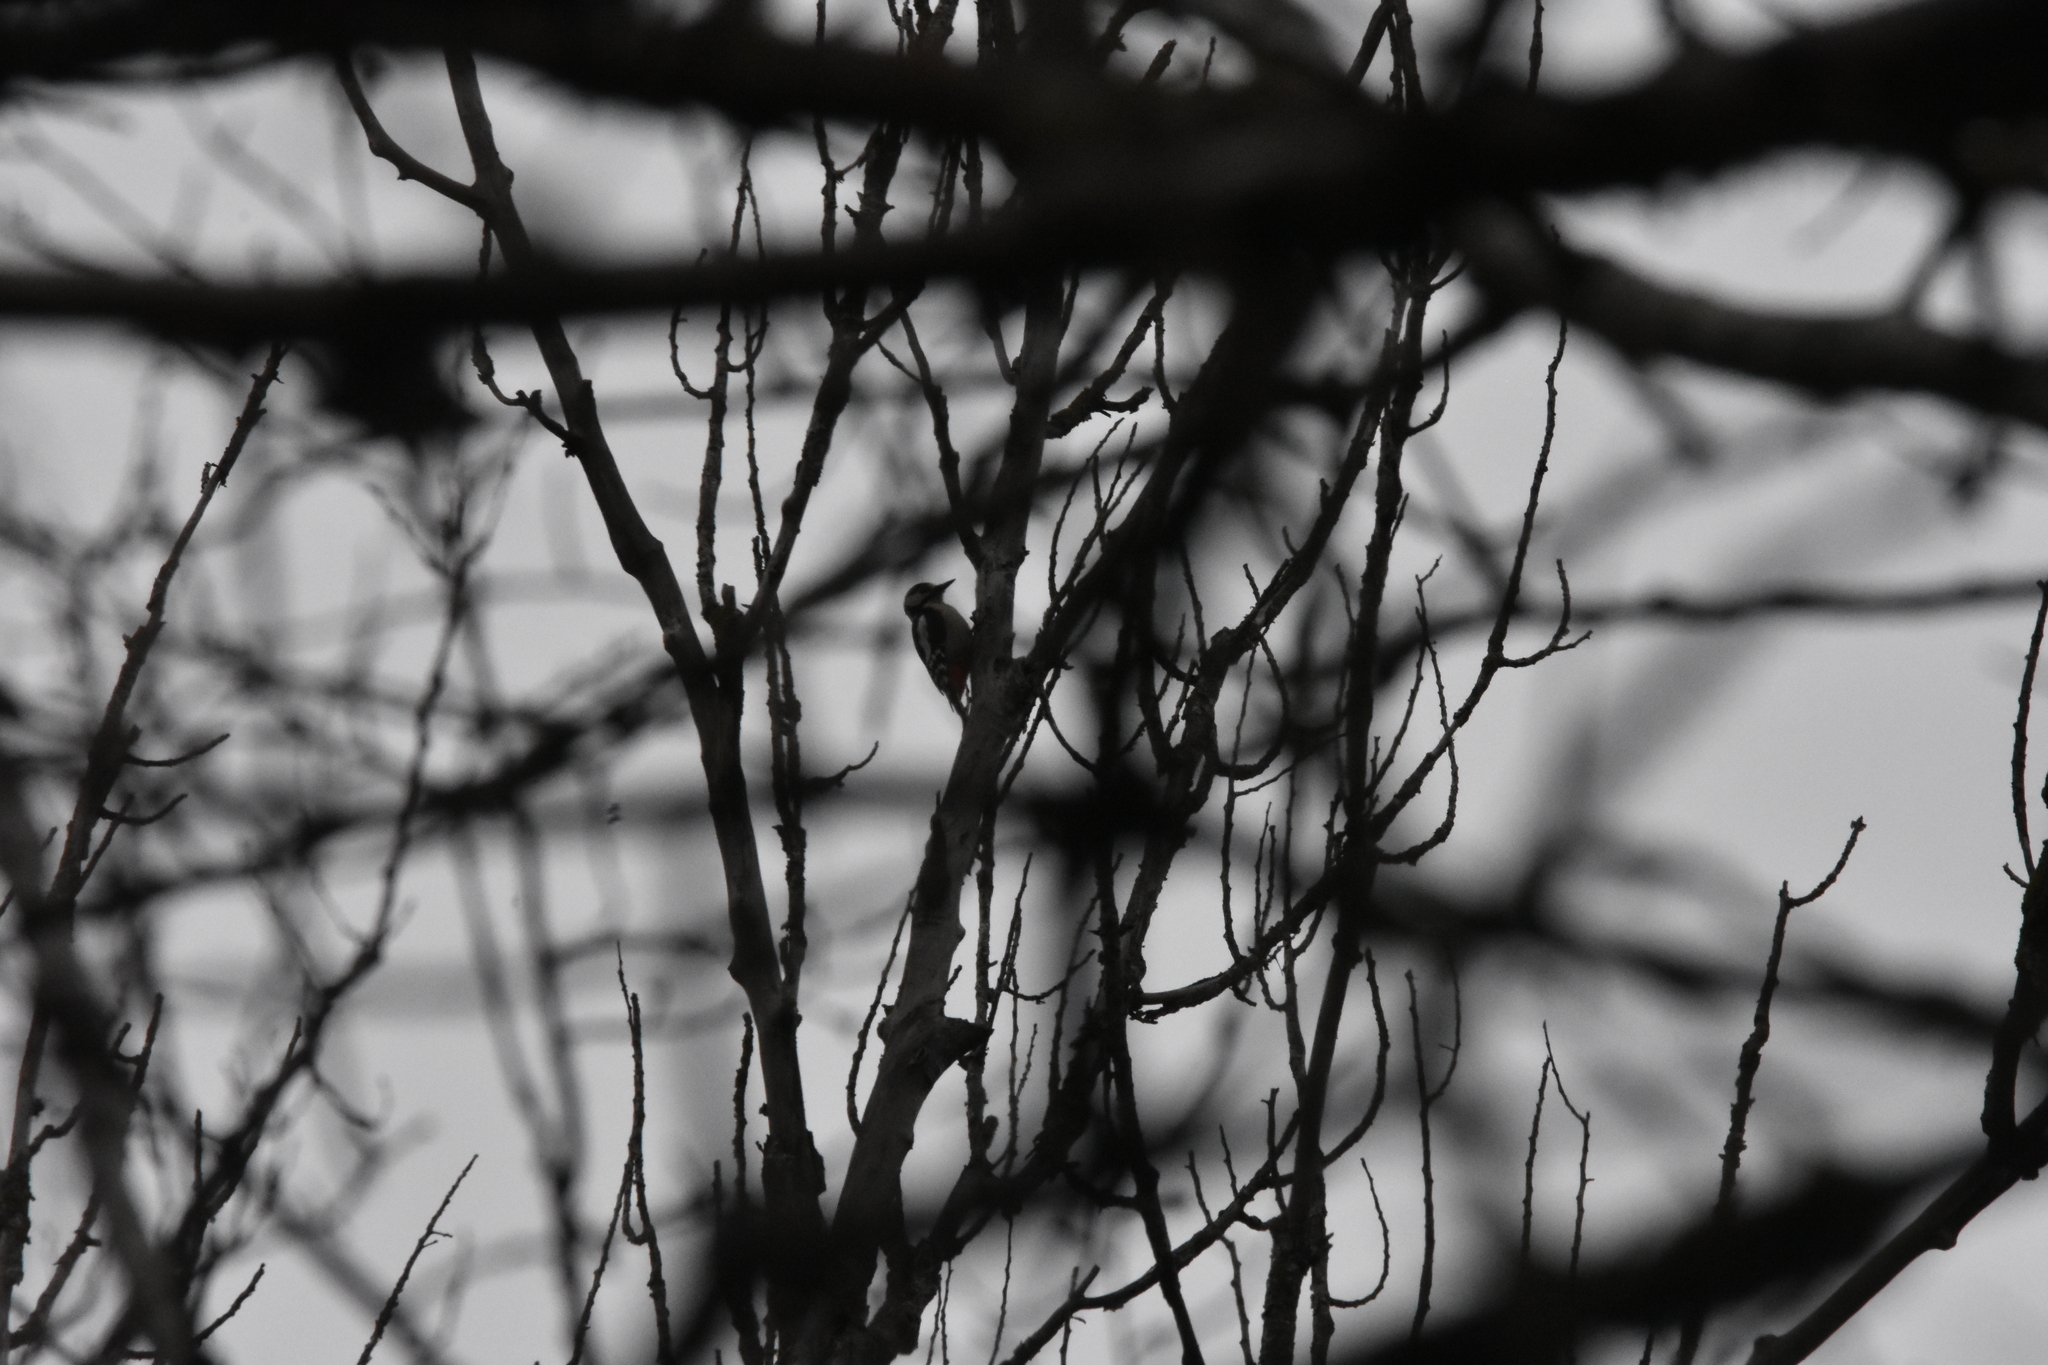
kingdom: Animalia
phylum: Chordata
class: Aves
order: Piciformes
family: Picidae
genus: Dendrocopos
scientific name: Dendrocopos major
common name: Great spotted woodpecker
